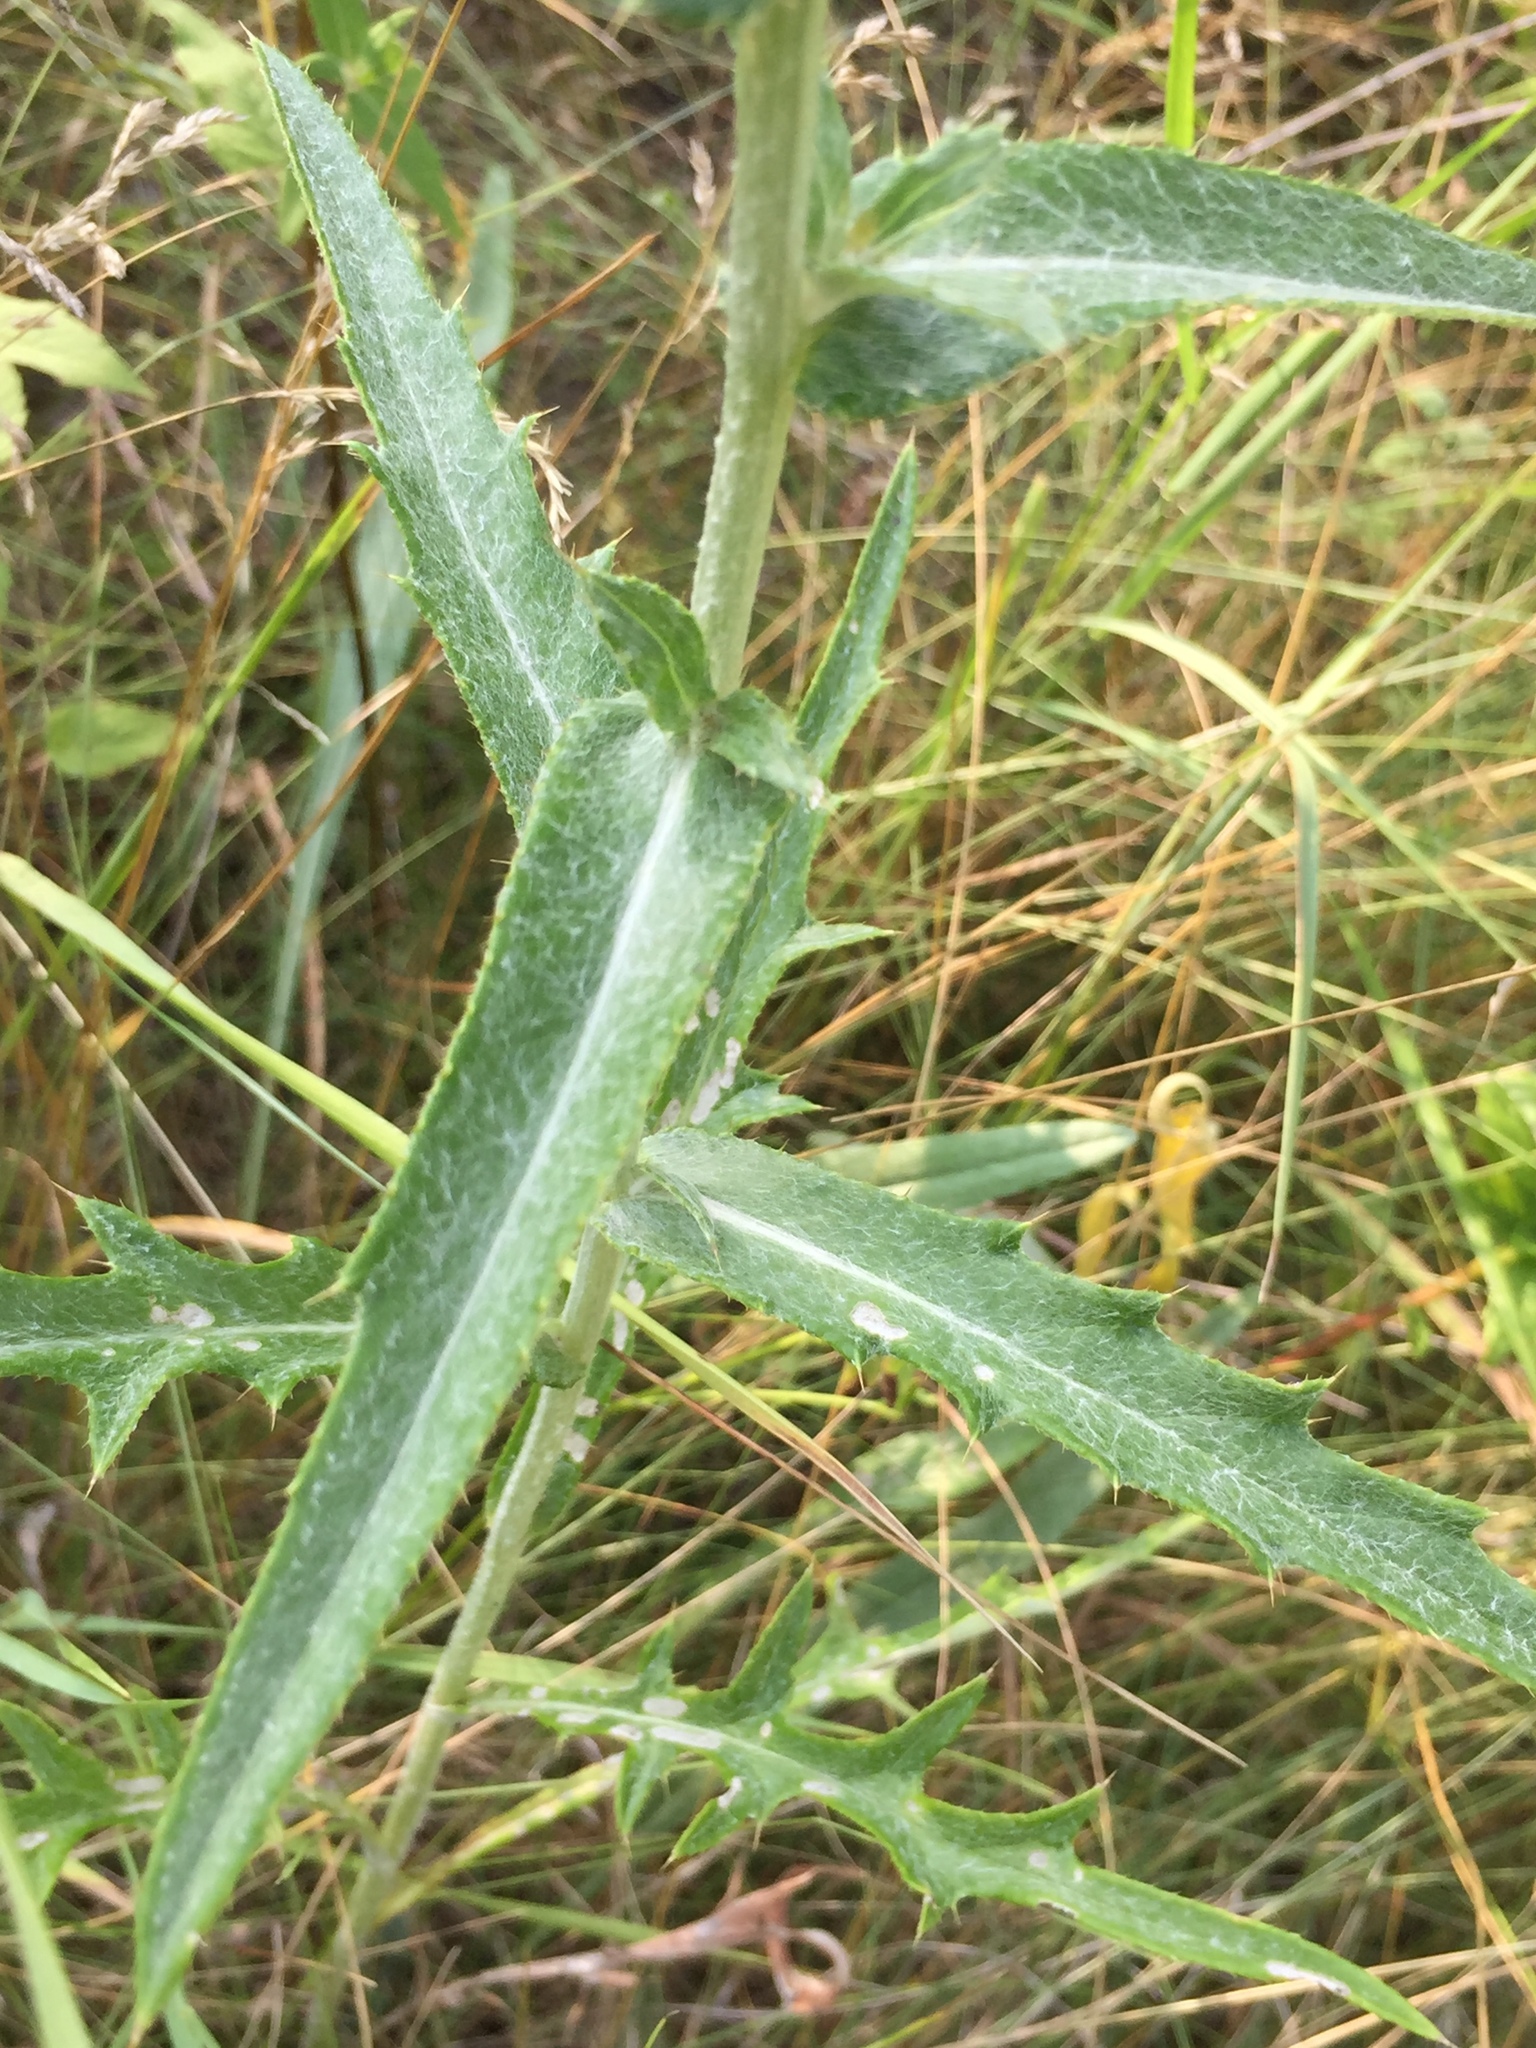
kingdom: Plantae
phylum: Tracheophyta
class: Magnoliopsida
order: Asterales
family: Asteraceae
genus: Cirsium
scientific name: Cirsium flodmanii
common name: Flodman's thistle
